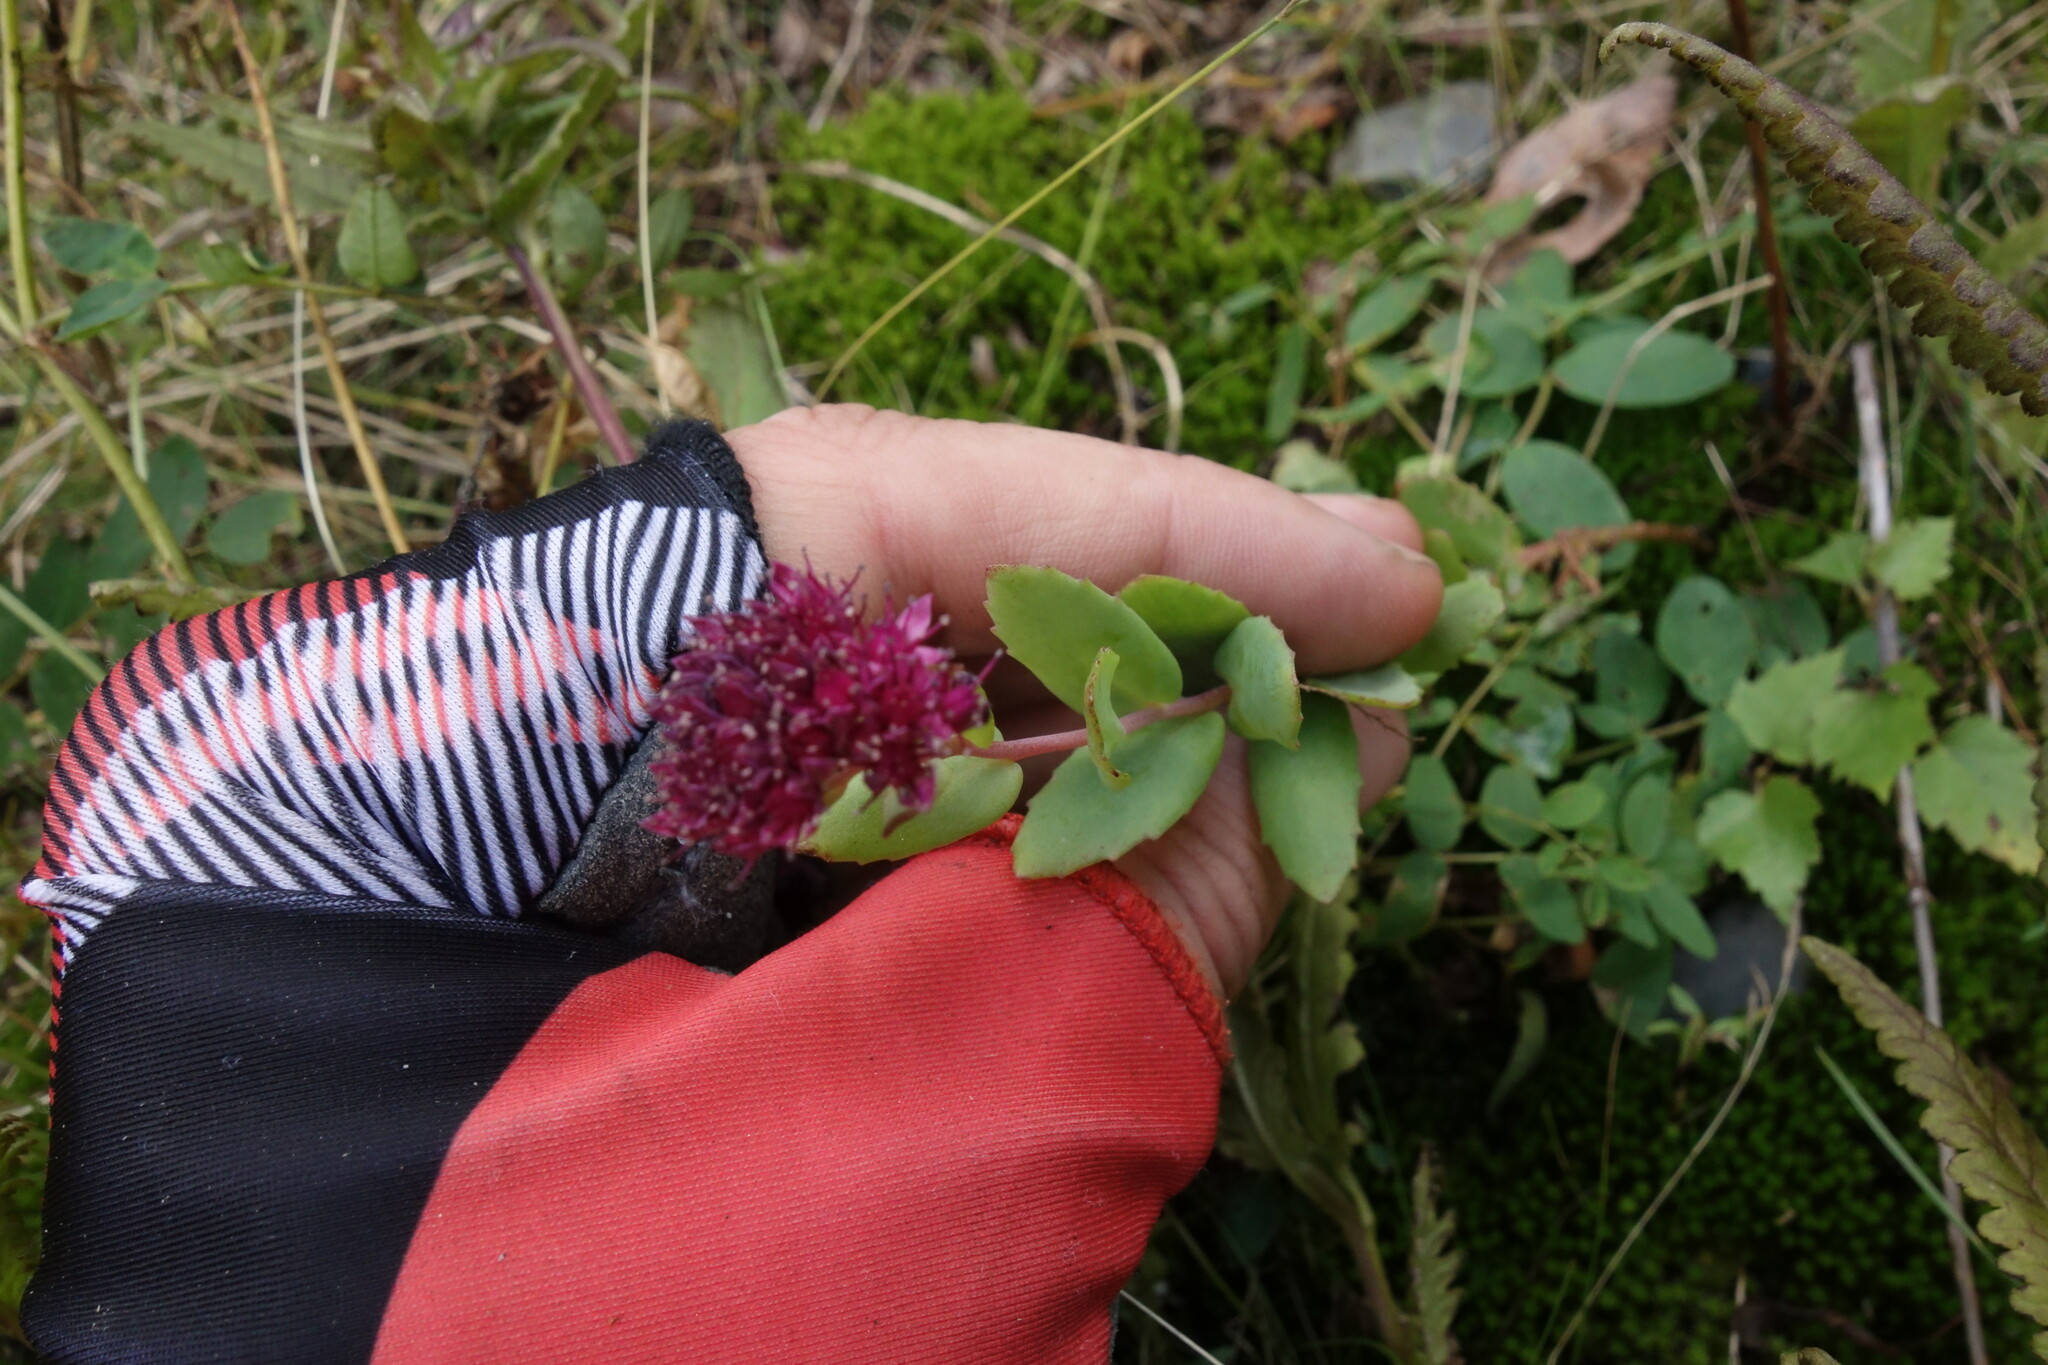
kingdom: Plantae
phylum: Tracheophyta
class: Magnoliopsida
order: Saxifragales
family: Crassulaceae
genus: Hylotelephium
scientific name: Hylotelephium telephium
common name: Live-forever
